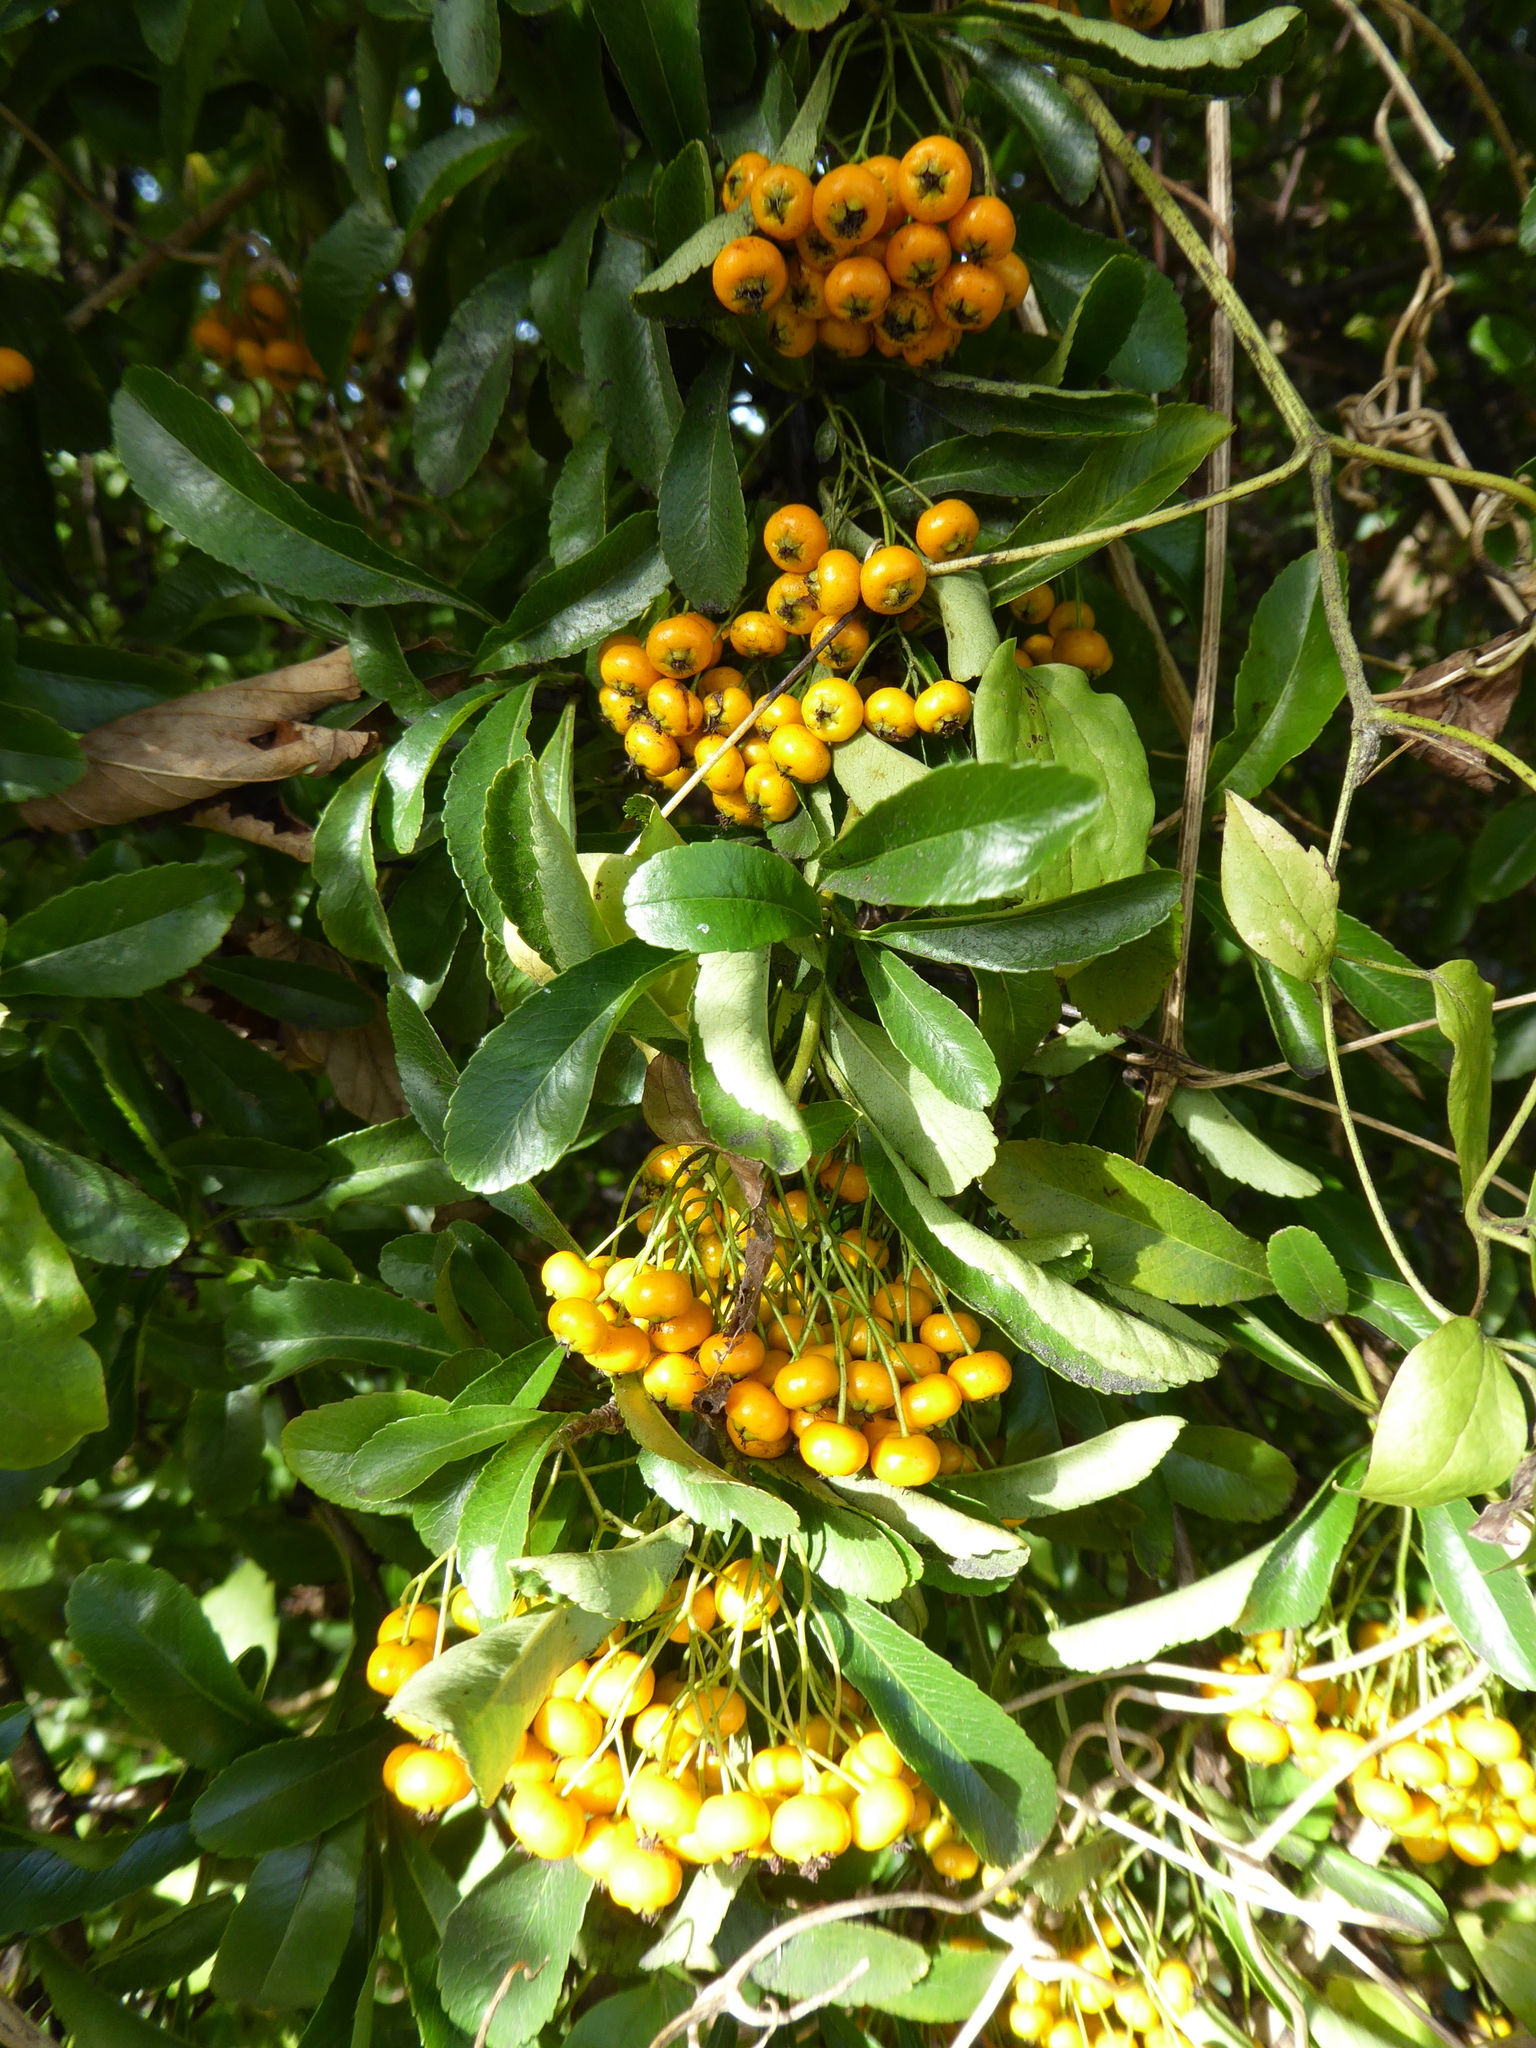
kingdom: Plantae
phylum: Tracheophyta
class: Magnoliopsida
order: Rosales
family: Rosaceae
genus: Pyracantha
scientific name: Pyracantha coccinea
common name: Firethorn
